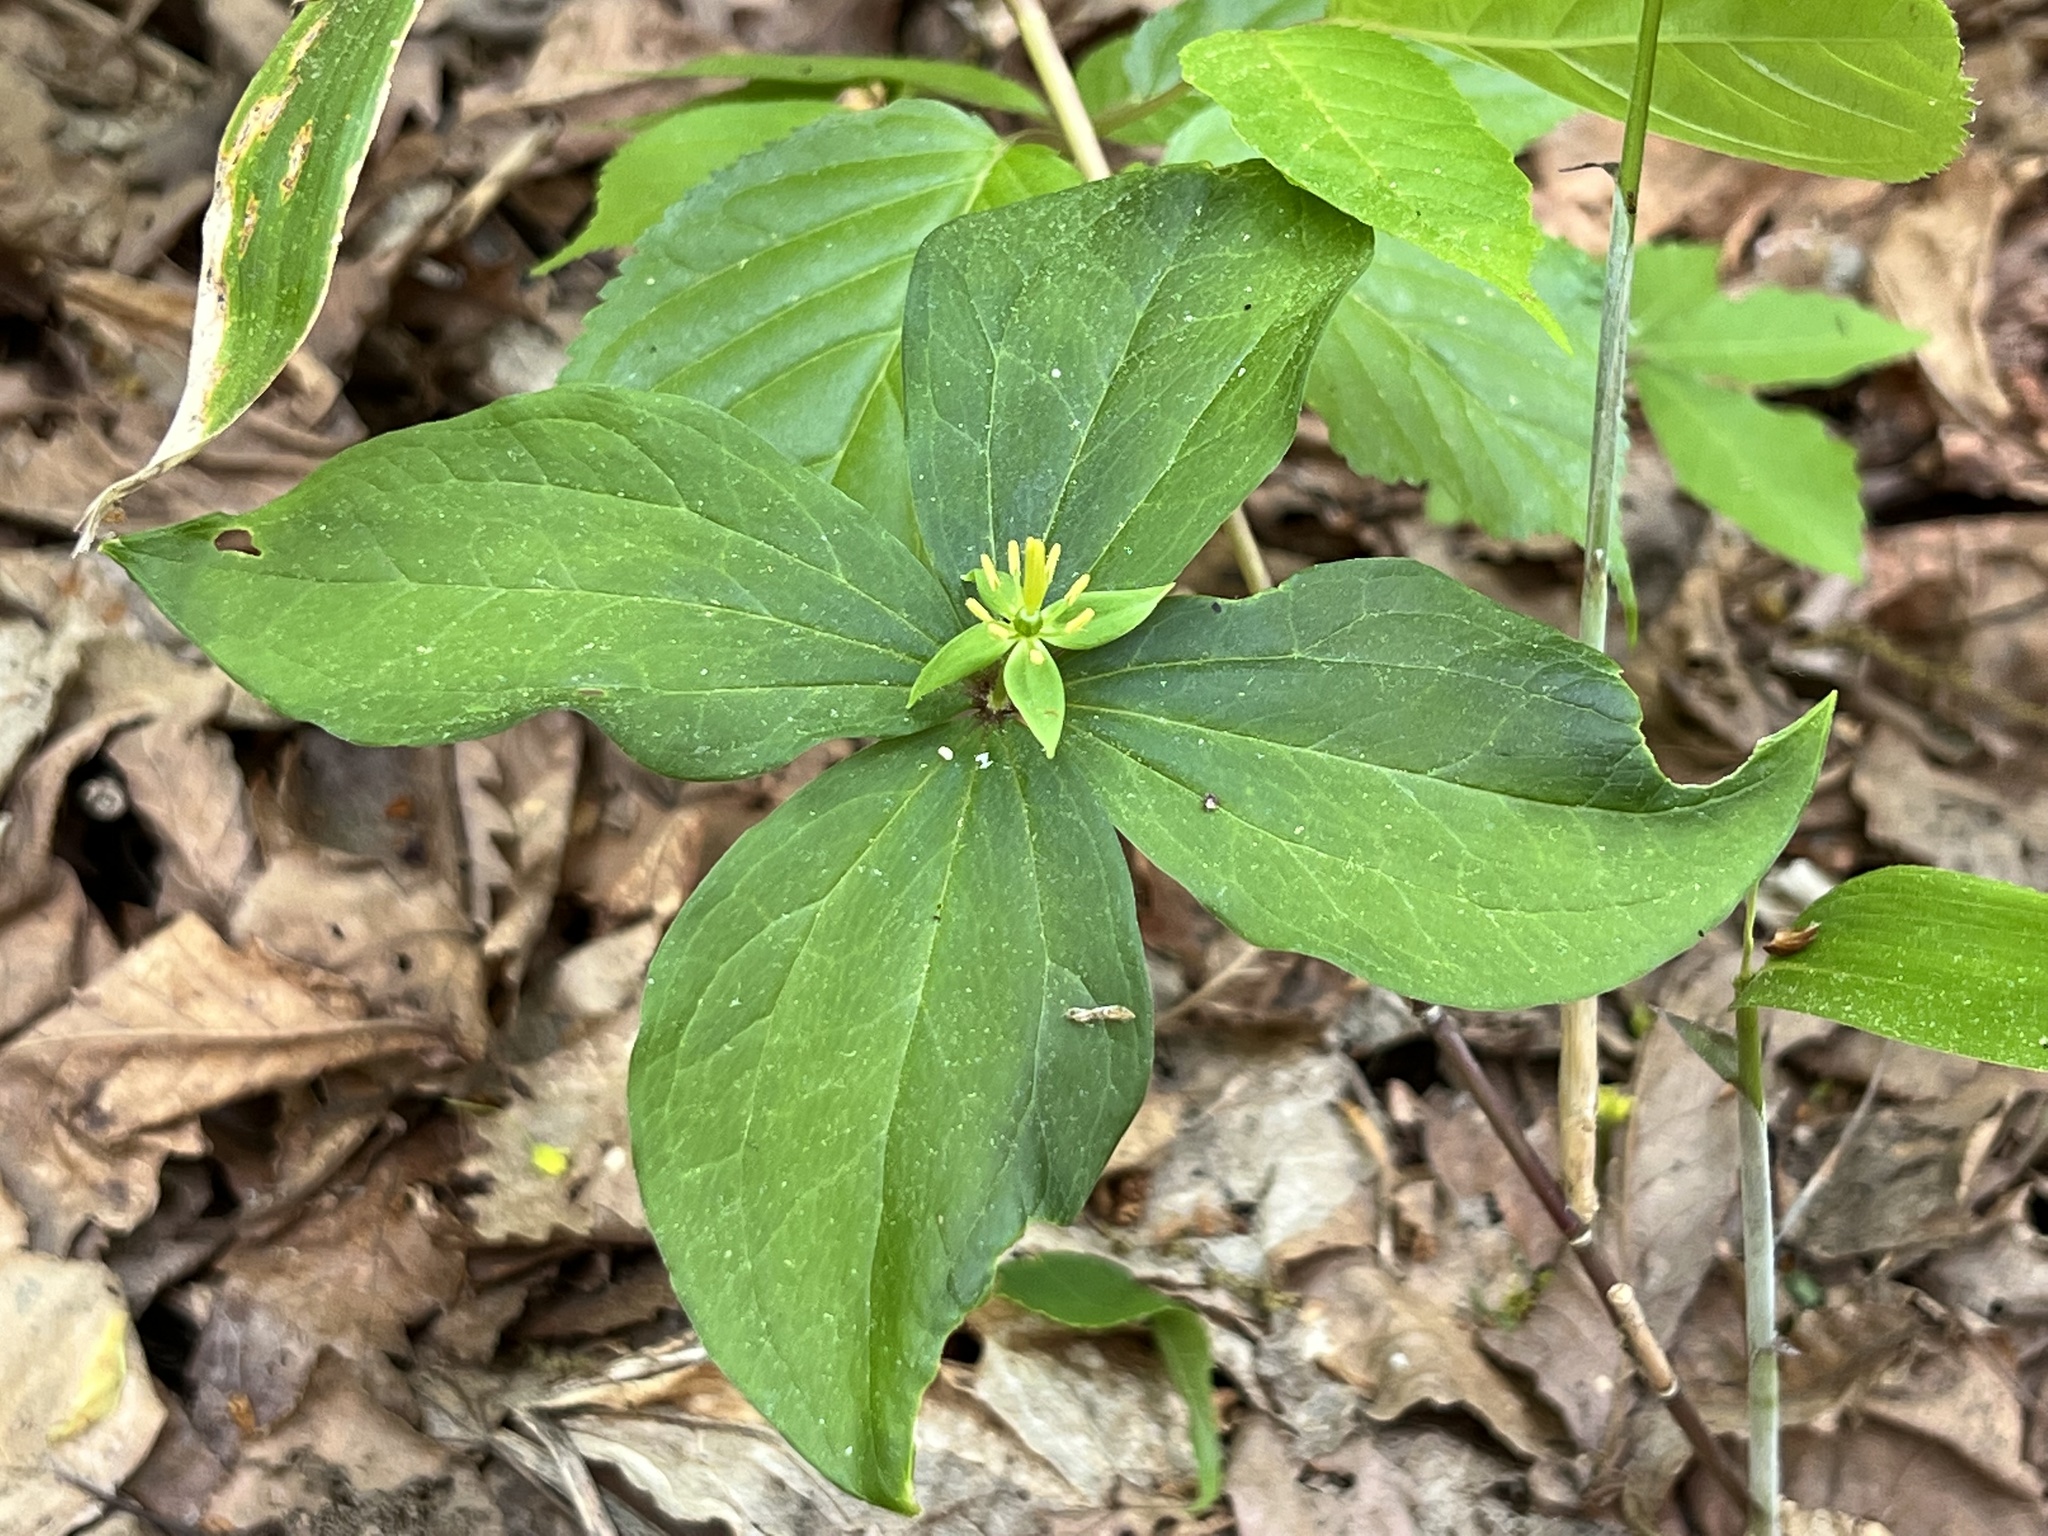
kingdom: Plantae
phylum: Tracheophyta
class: Liliopsida
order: Liliales
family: Melanthiaceae
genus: Paris
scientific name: Paris tetraphylla
